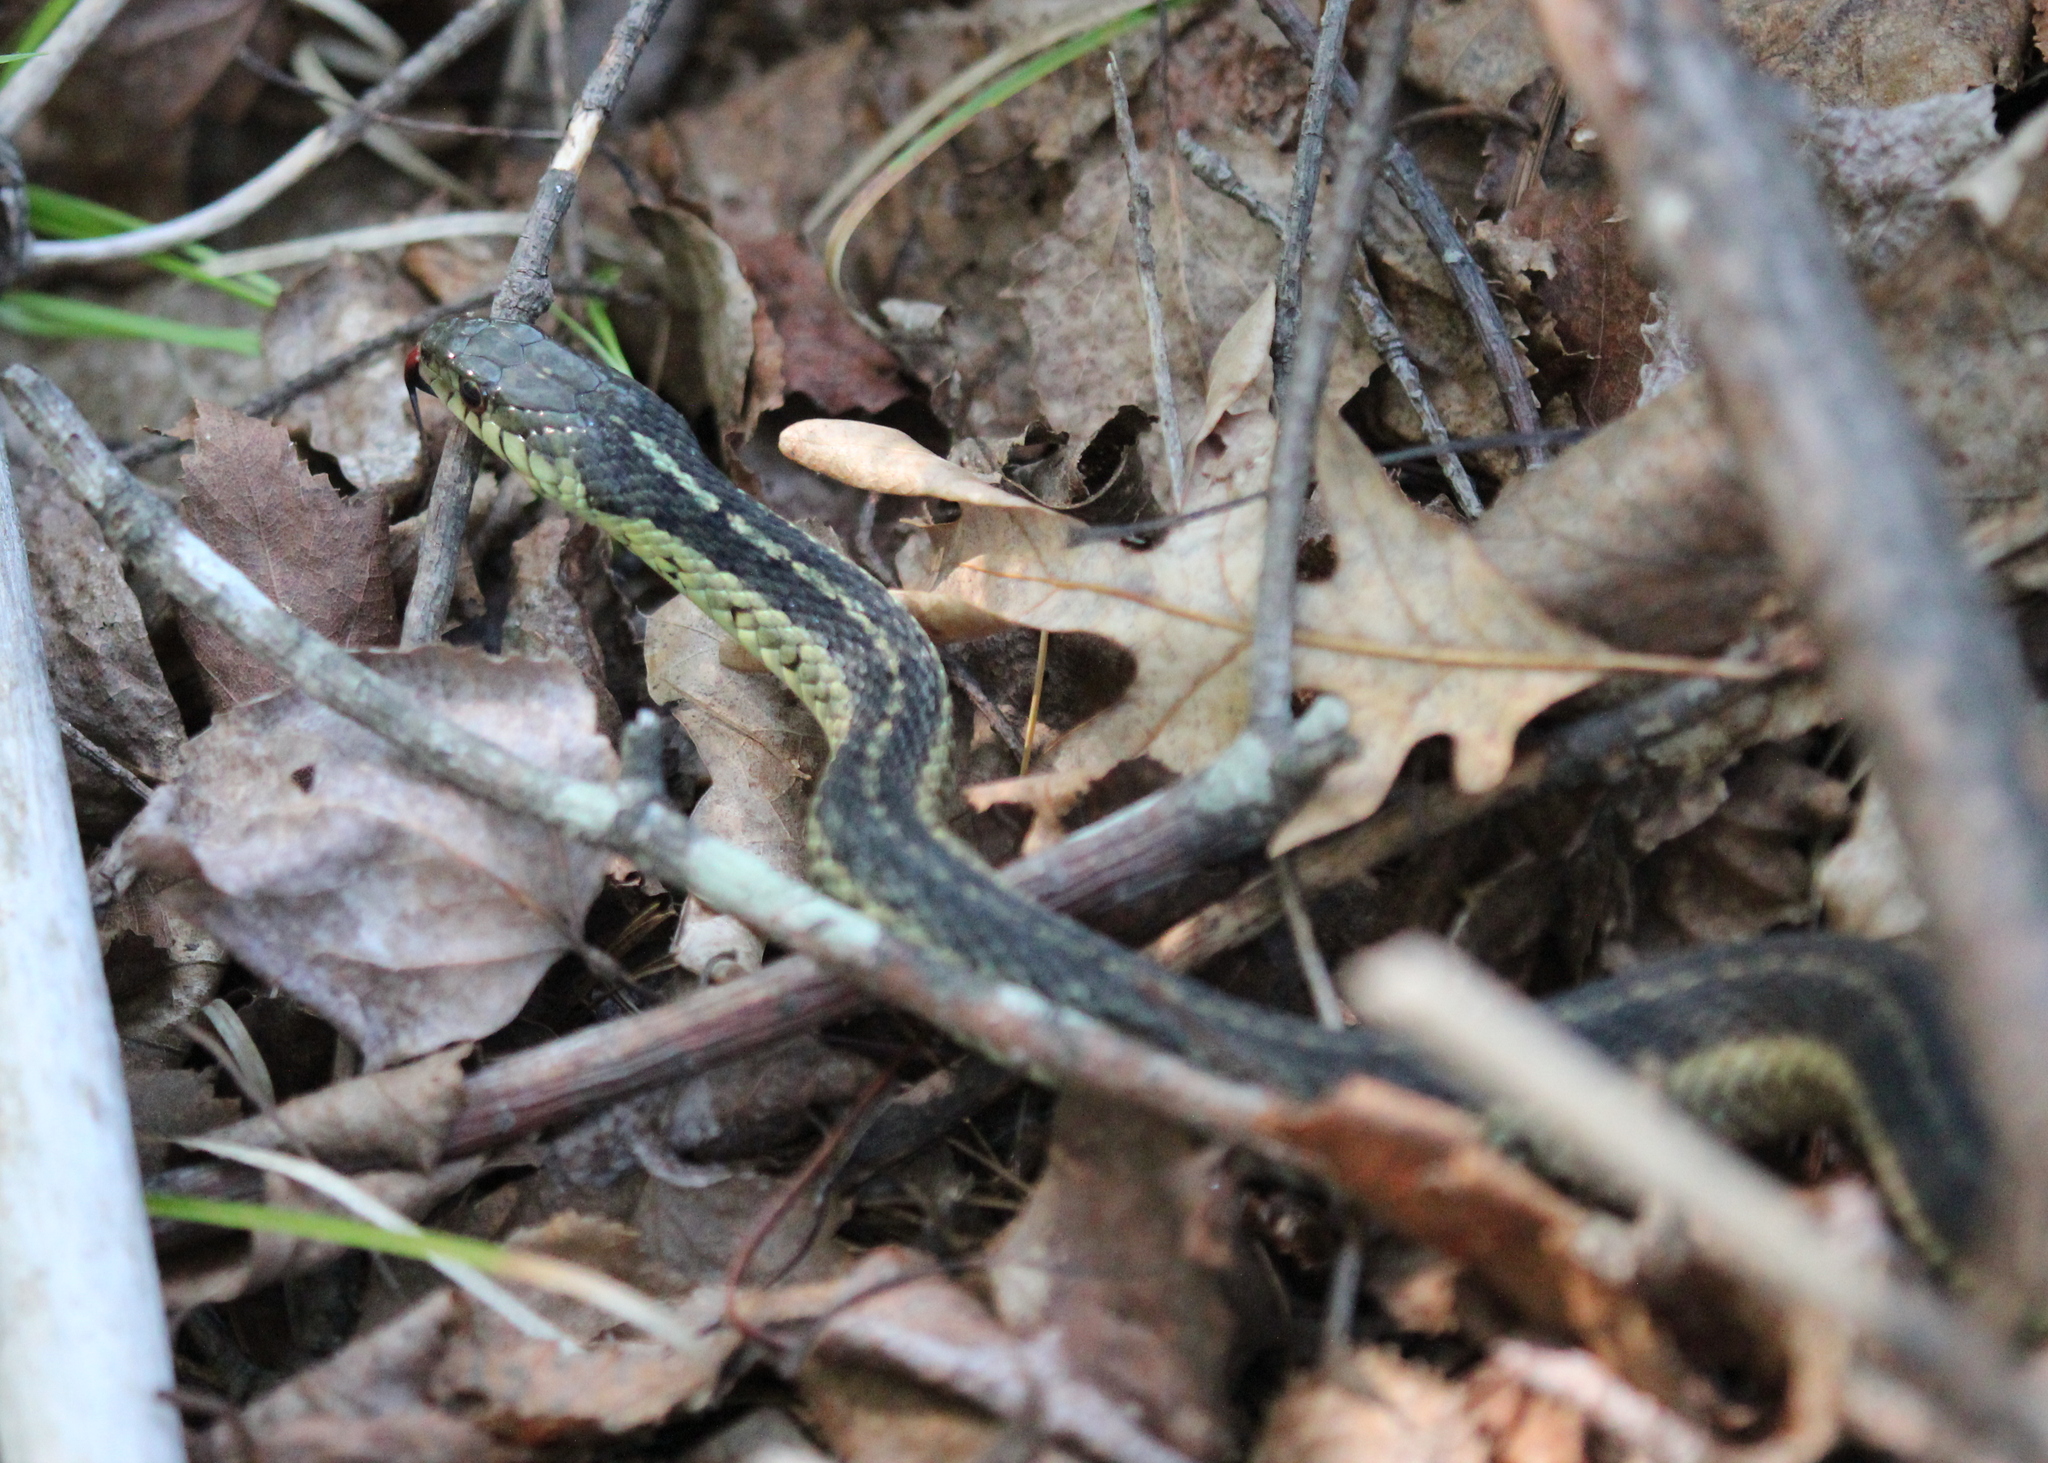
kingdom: Animalia
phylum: Chordata
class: Squamata
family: Colubridae
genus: Thamnophis
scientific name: Thamnophis sirtalis
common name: Common garter snake
